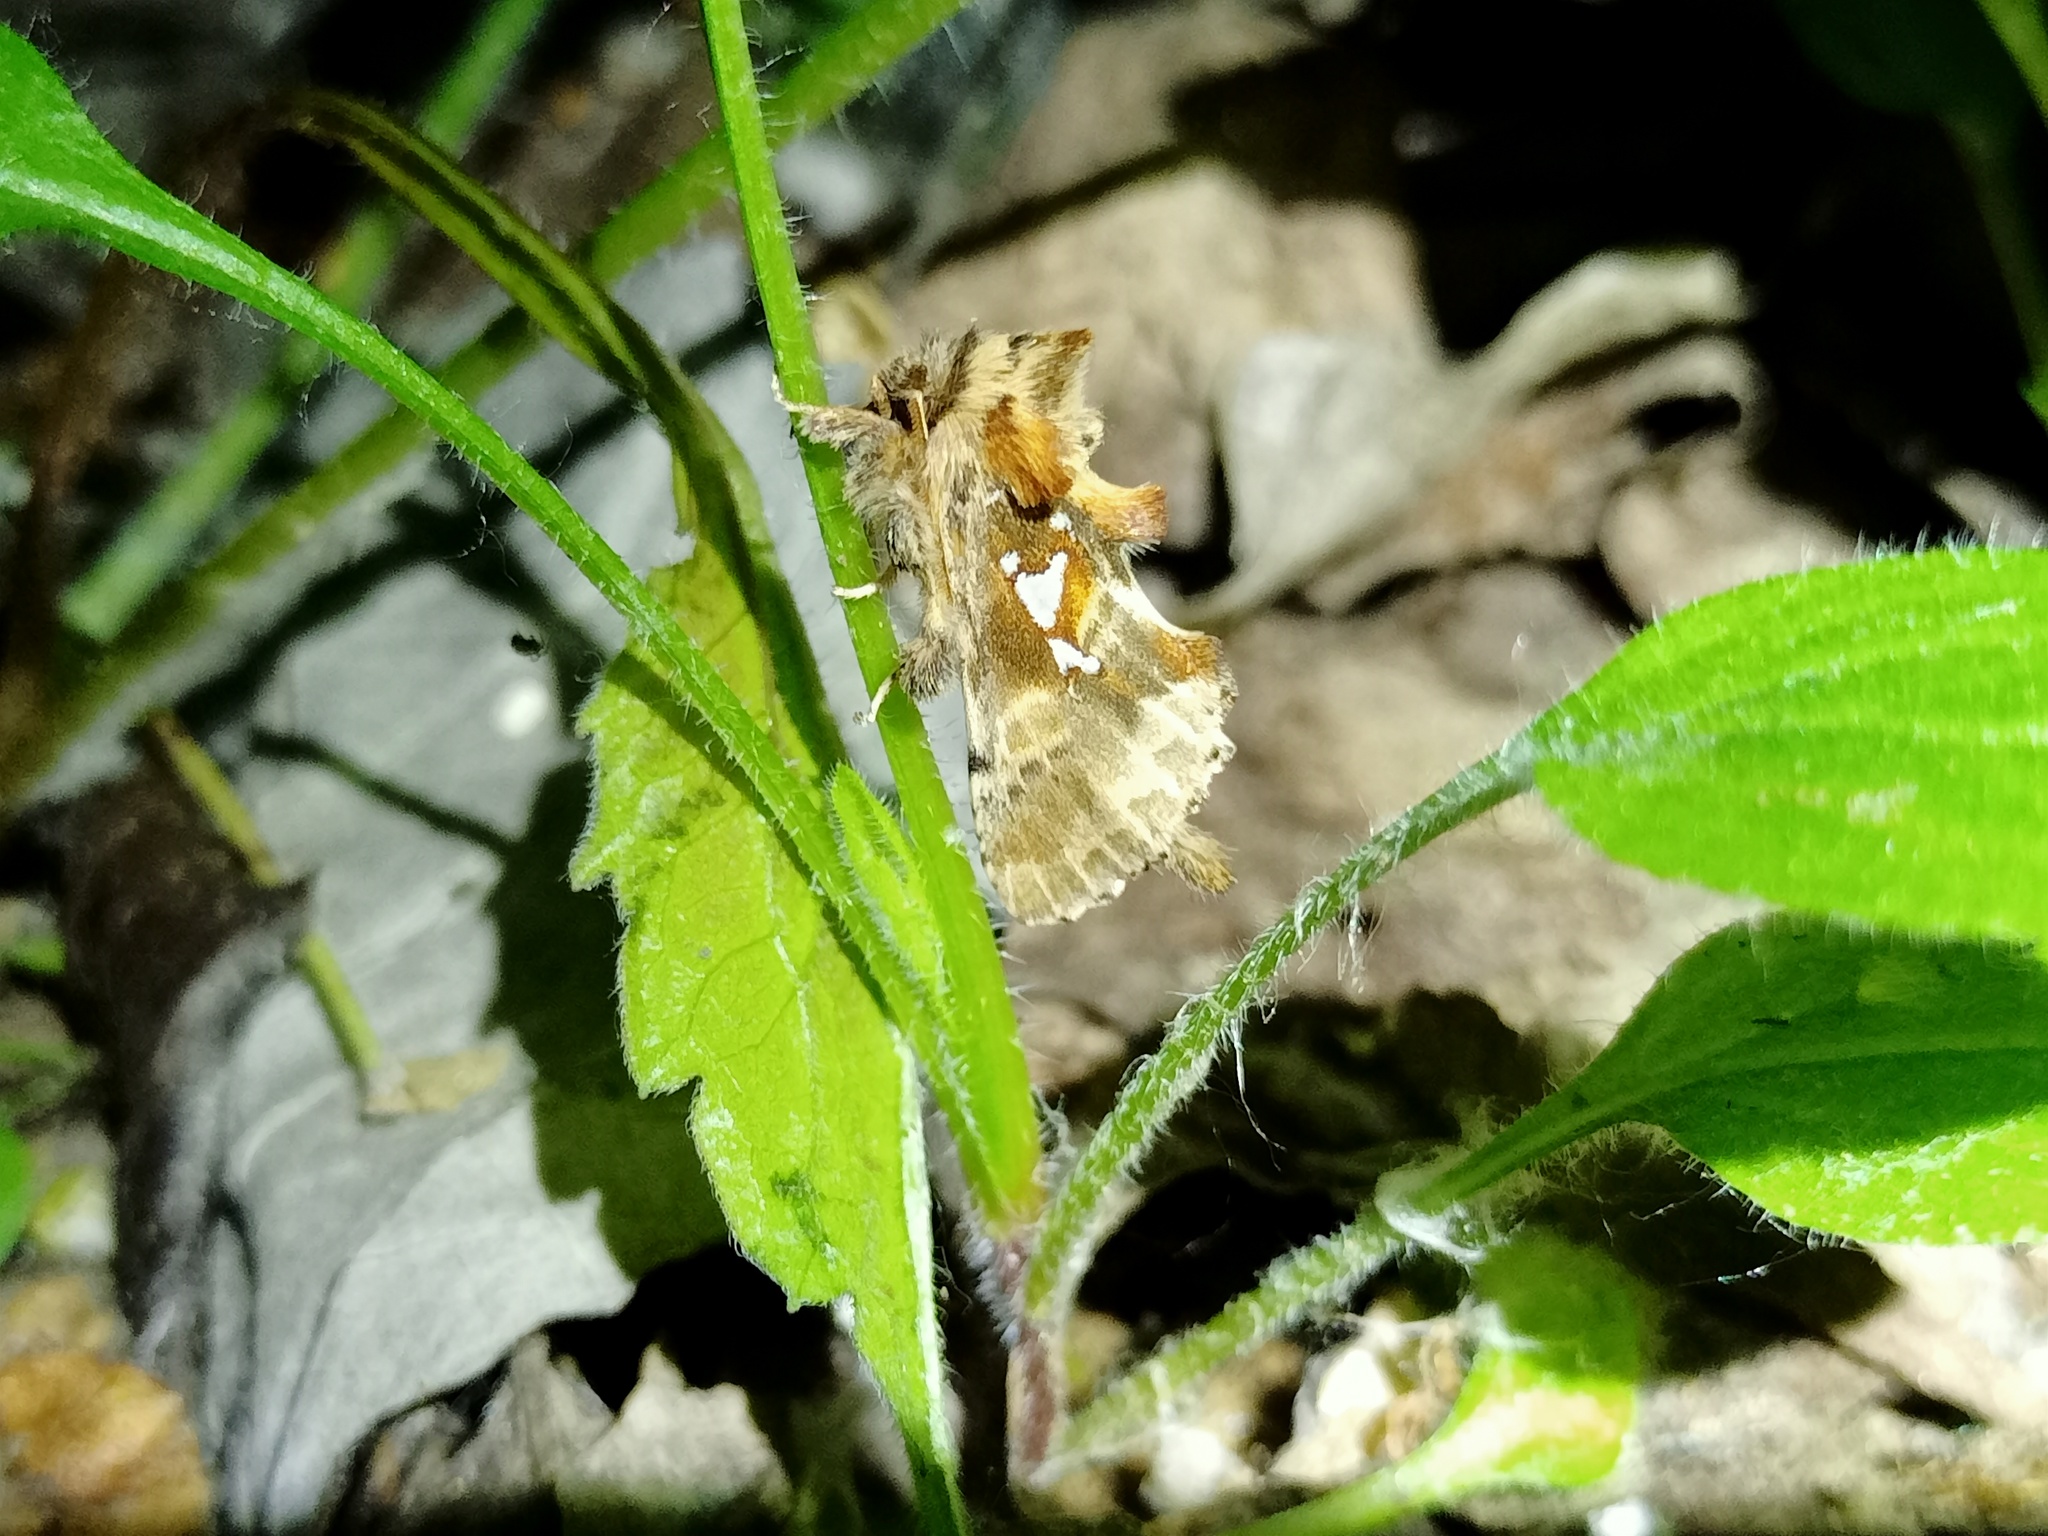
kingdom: Animalia
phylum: Arthropoda
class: Insecta
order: Lepidoptera
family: Notodontidae
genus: Spatalia
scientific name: Spatalia argentina
